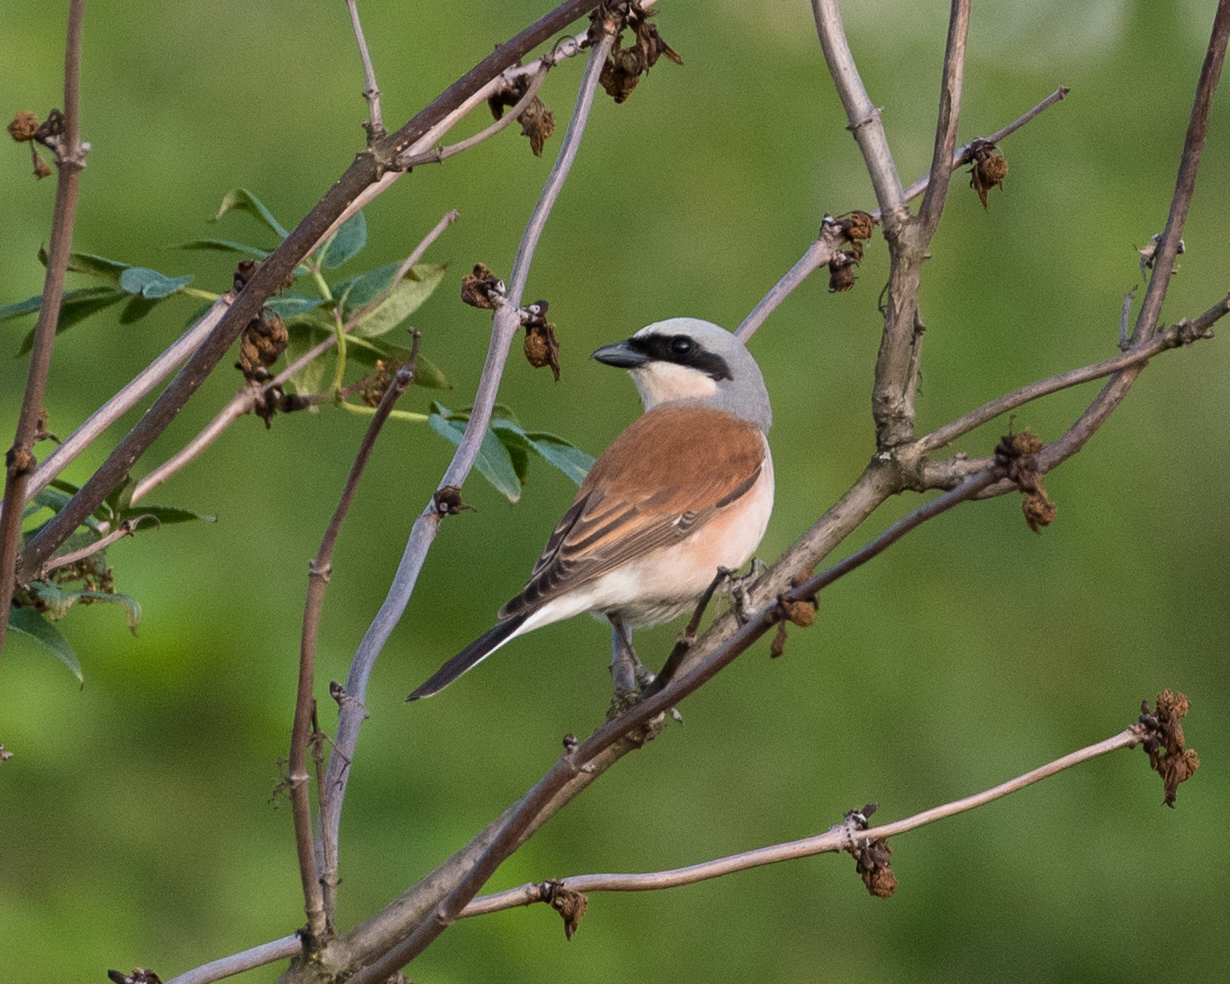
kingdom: Animalia
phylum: Chordata
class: Aves
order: Passeriformes
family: Laniidae
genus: Lanius
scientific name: Lanius collurio
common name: Red-backed shrike
